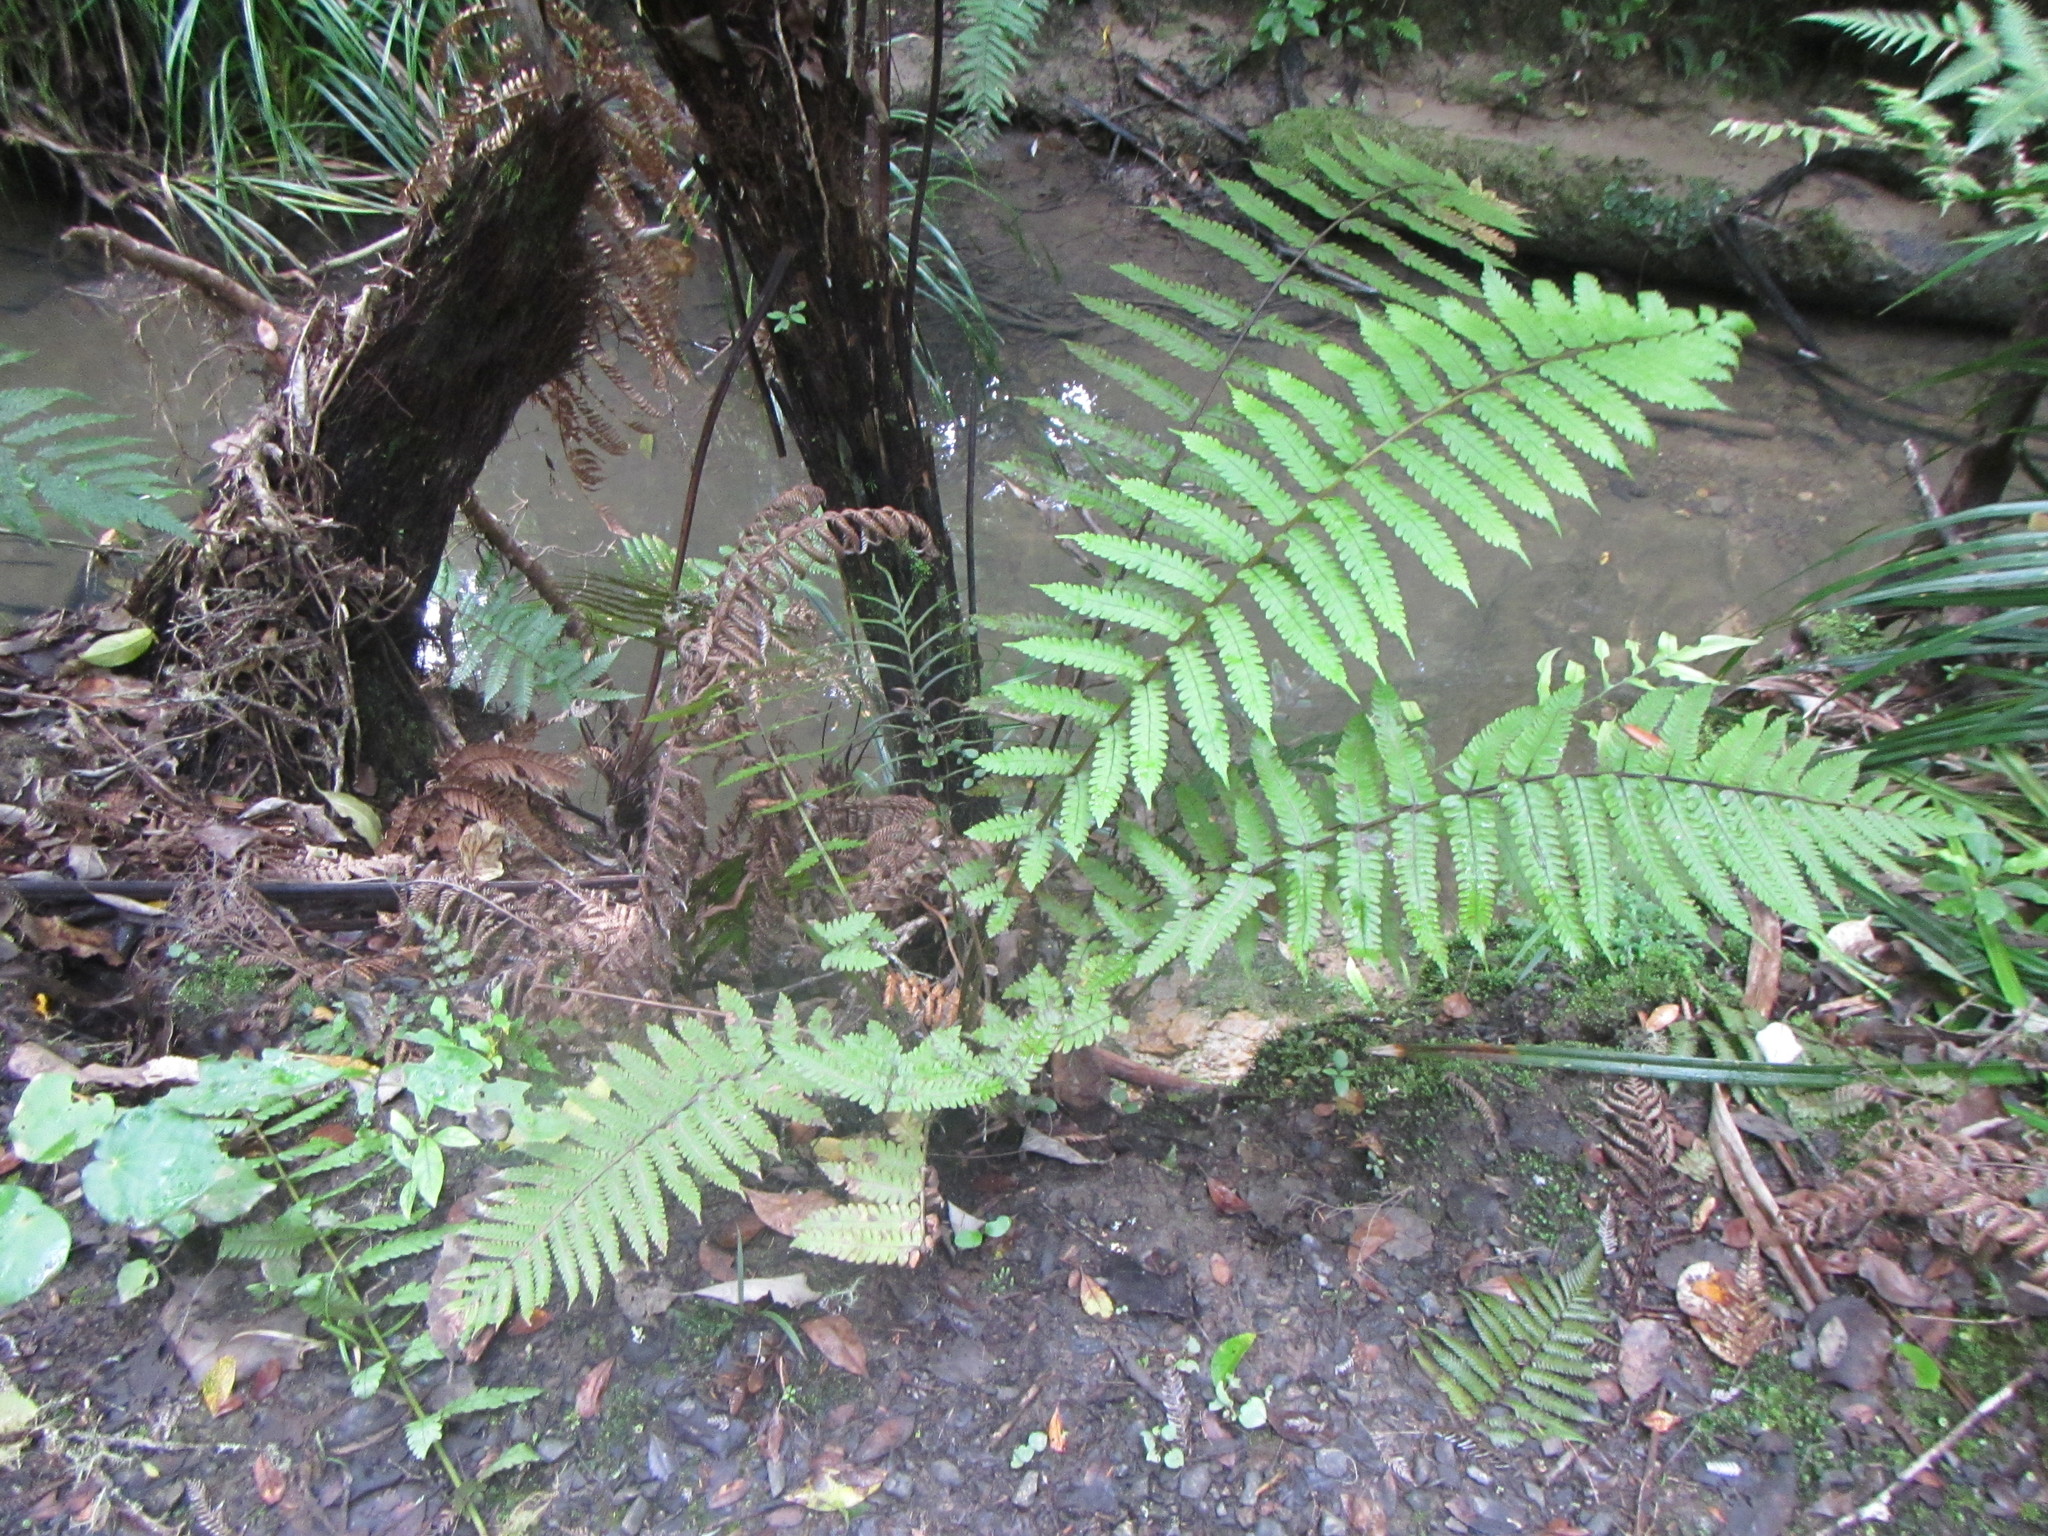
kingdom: Plantae
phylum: Tracheophyta
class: Polypodiopsida
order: Polypodiales
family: Thelypteridaceae
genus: Pakau
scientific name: Pakau pennigera
